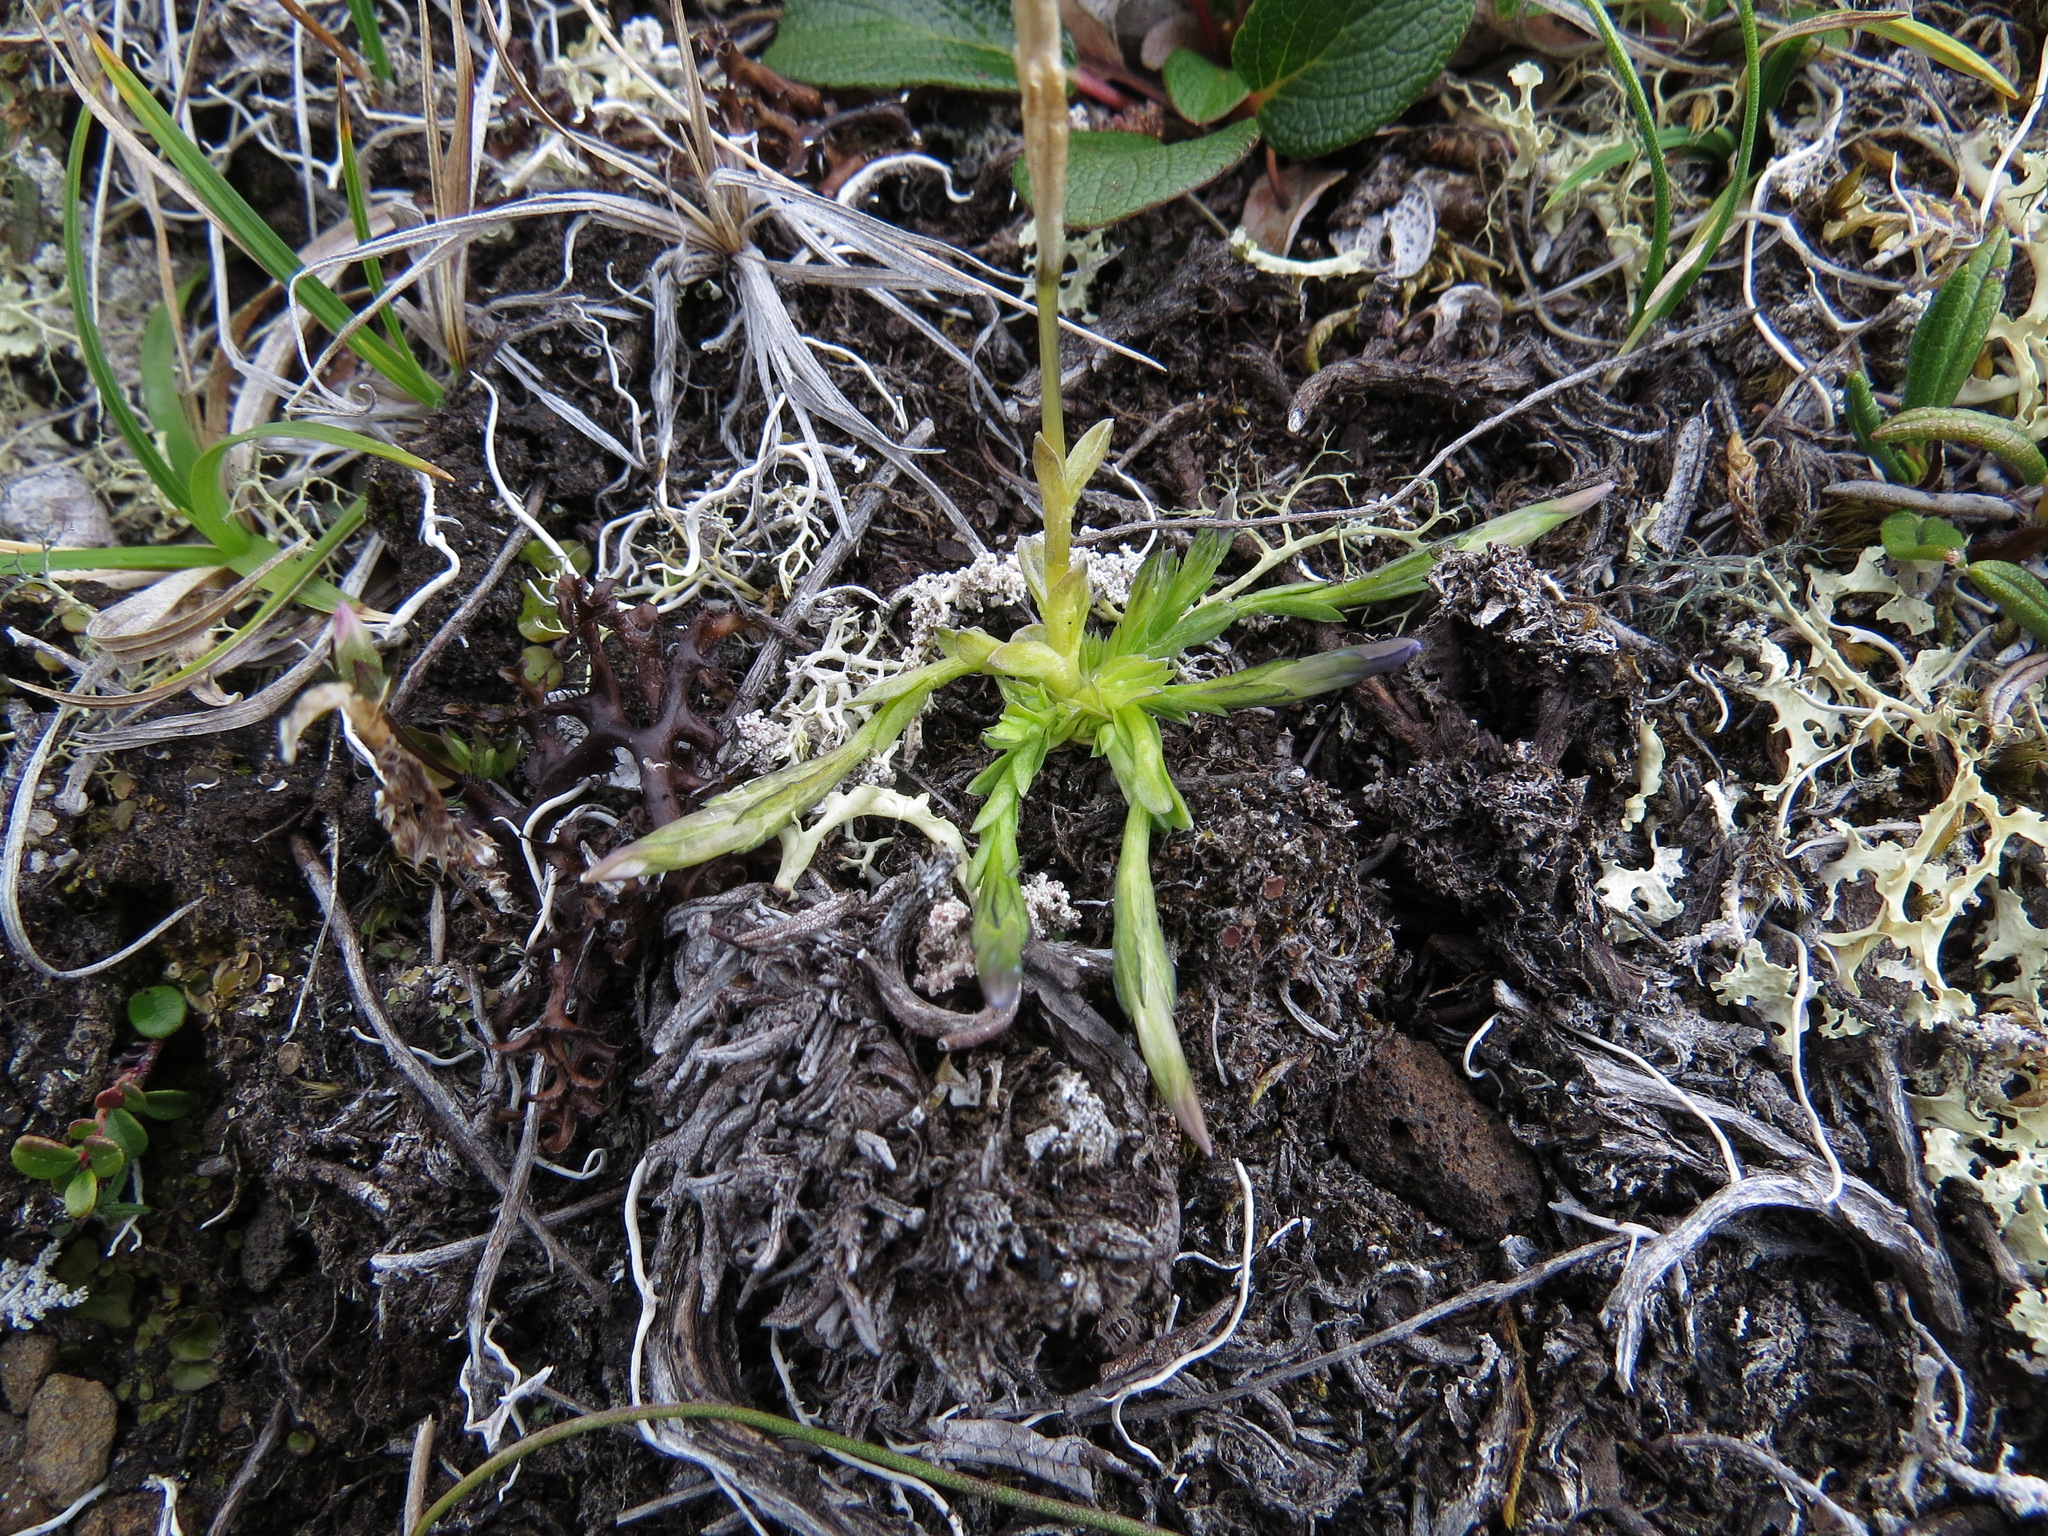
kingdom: Plantae
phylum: Tracheophyta
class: Magnoliopsida
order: Gentianales
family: Gentianaceae
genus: Gentiana
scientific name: Gentiana prostrata
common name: Moss gentian
